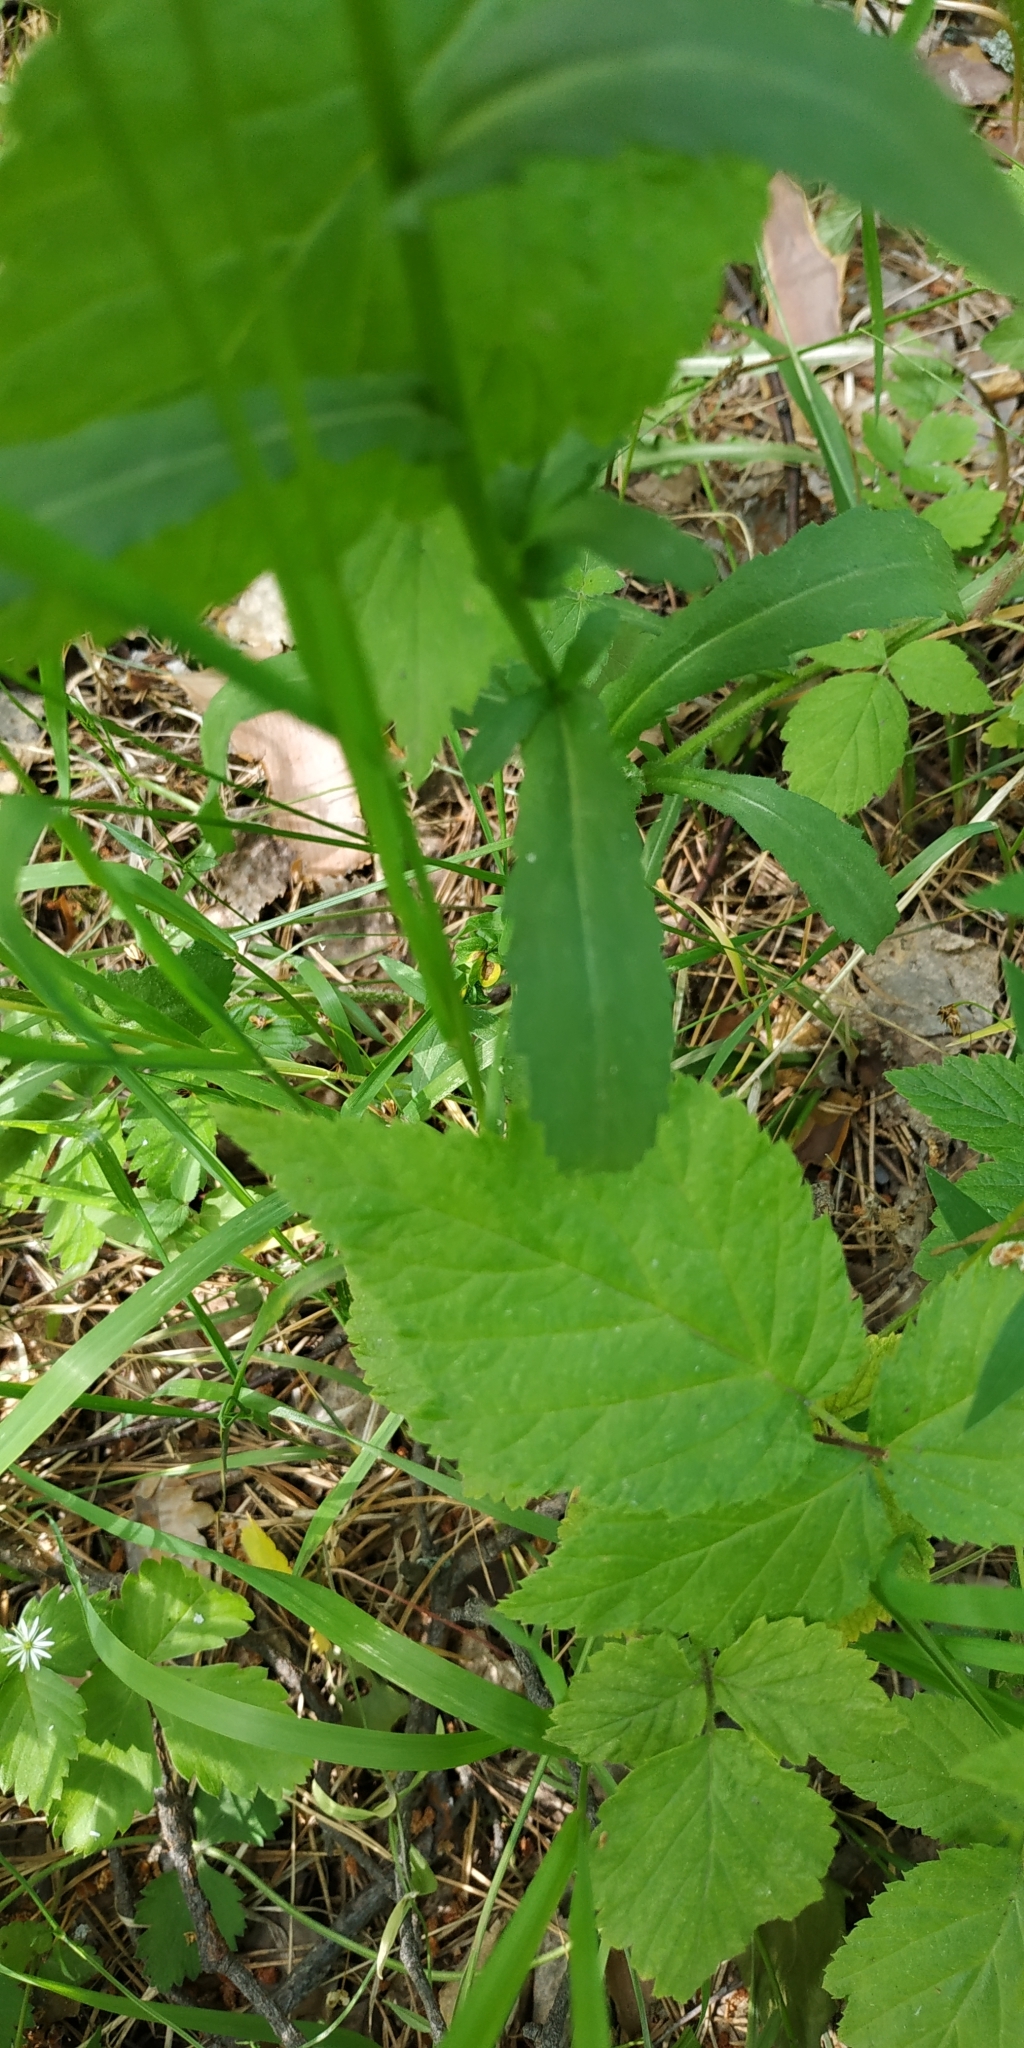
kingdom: Plantae
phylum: Tracheophyta
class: Magnoliopsida
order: Asterales
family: Asteraceae
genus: Leucanthemum
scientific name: Leucanthemum ircutianum
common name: Daisy
